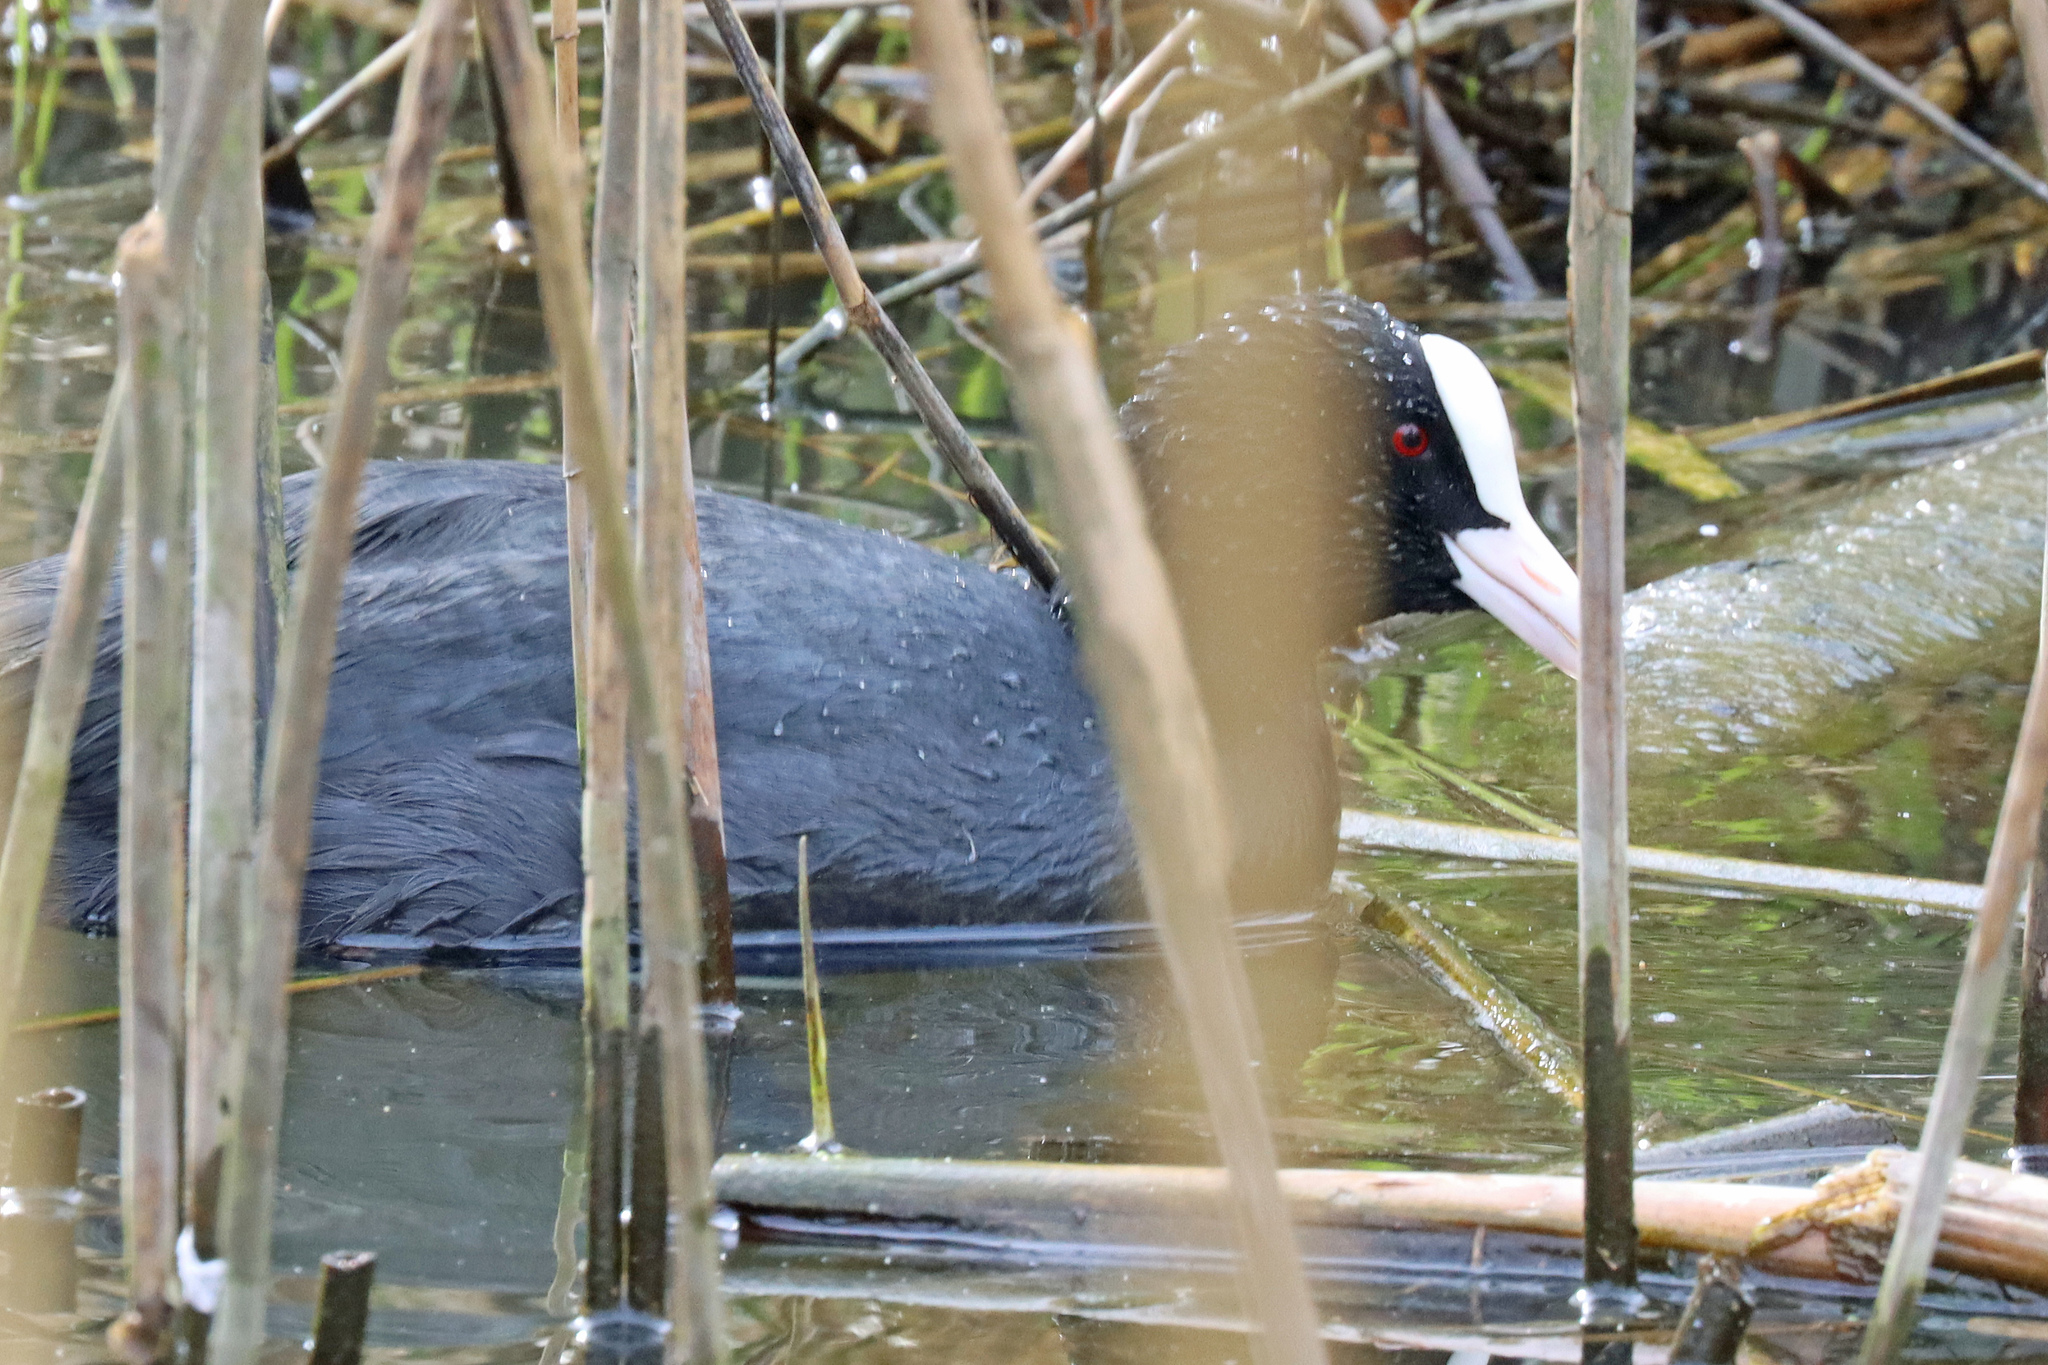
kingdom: Animalia
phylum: Chordata
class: Aves
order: Gruiformes
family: Rallidae
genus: Fulica
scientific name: Fulica atra
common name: Eurasian coot
